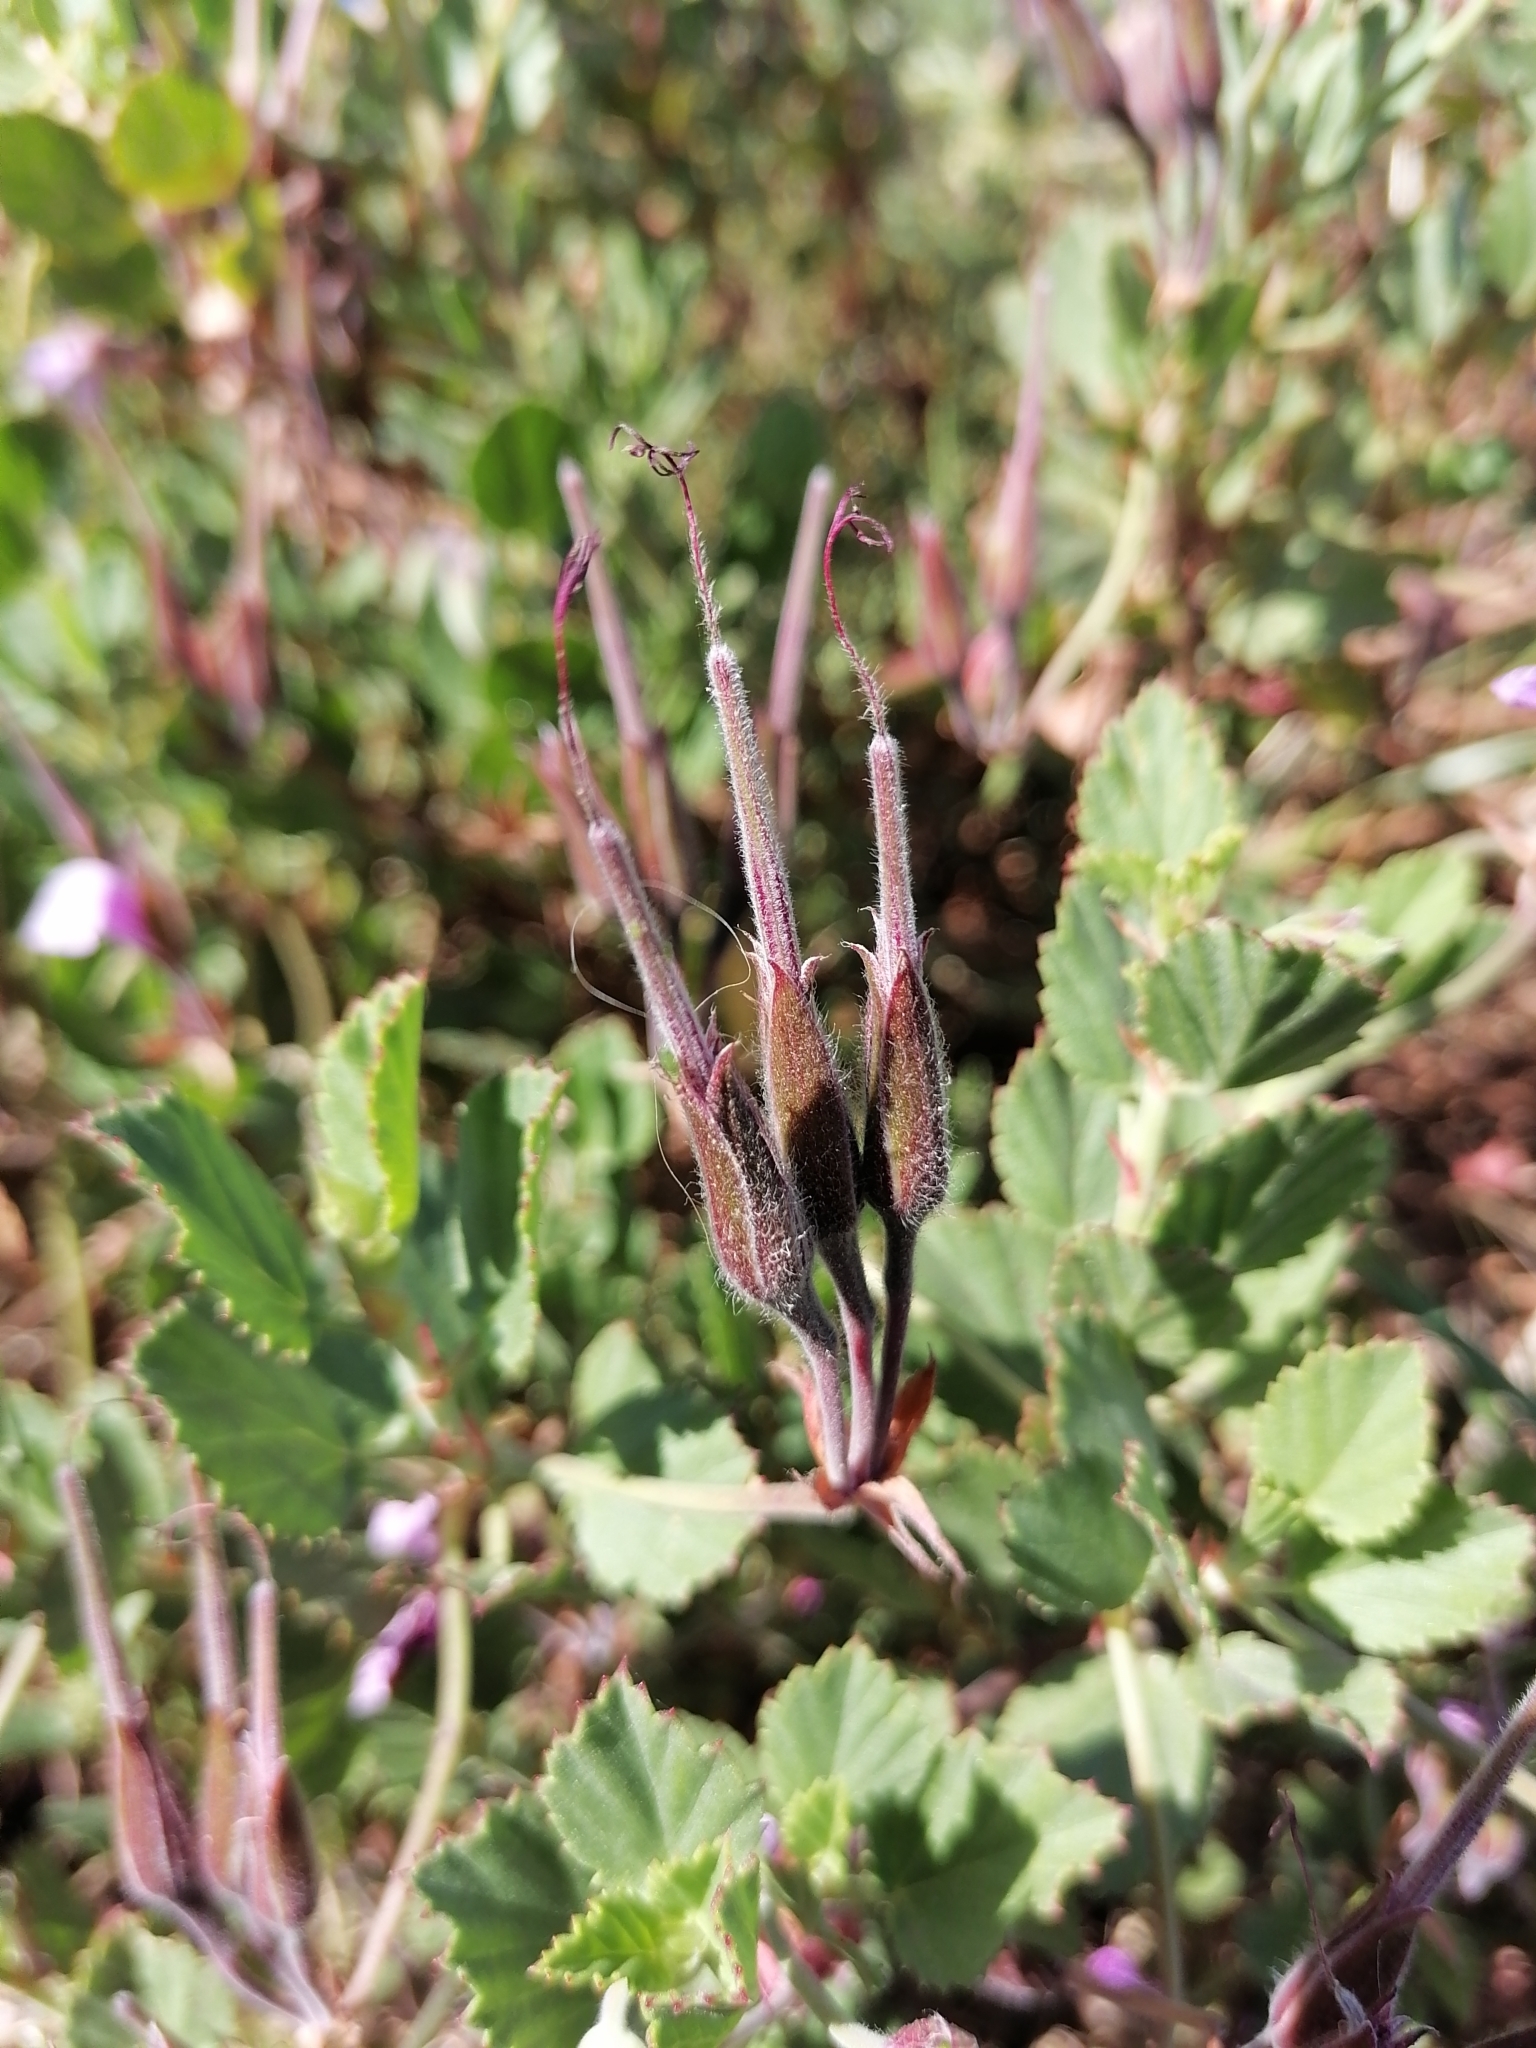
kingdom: Plantae
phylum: Tracheophyta
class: Magnoliopsida
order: Geraniales
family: Geraniaceae
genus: Pelargonium
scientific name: Pelargonium betulinum
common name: Birch-leaf pelargonium
